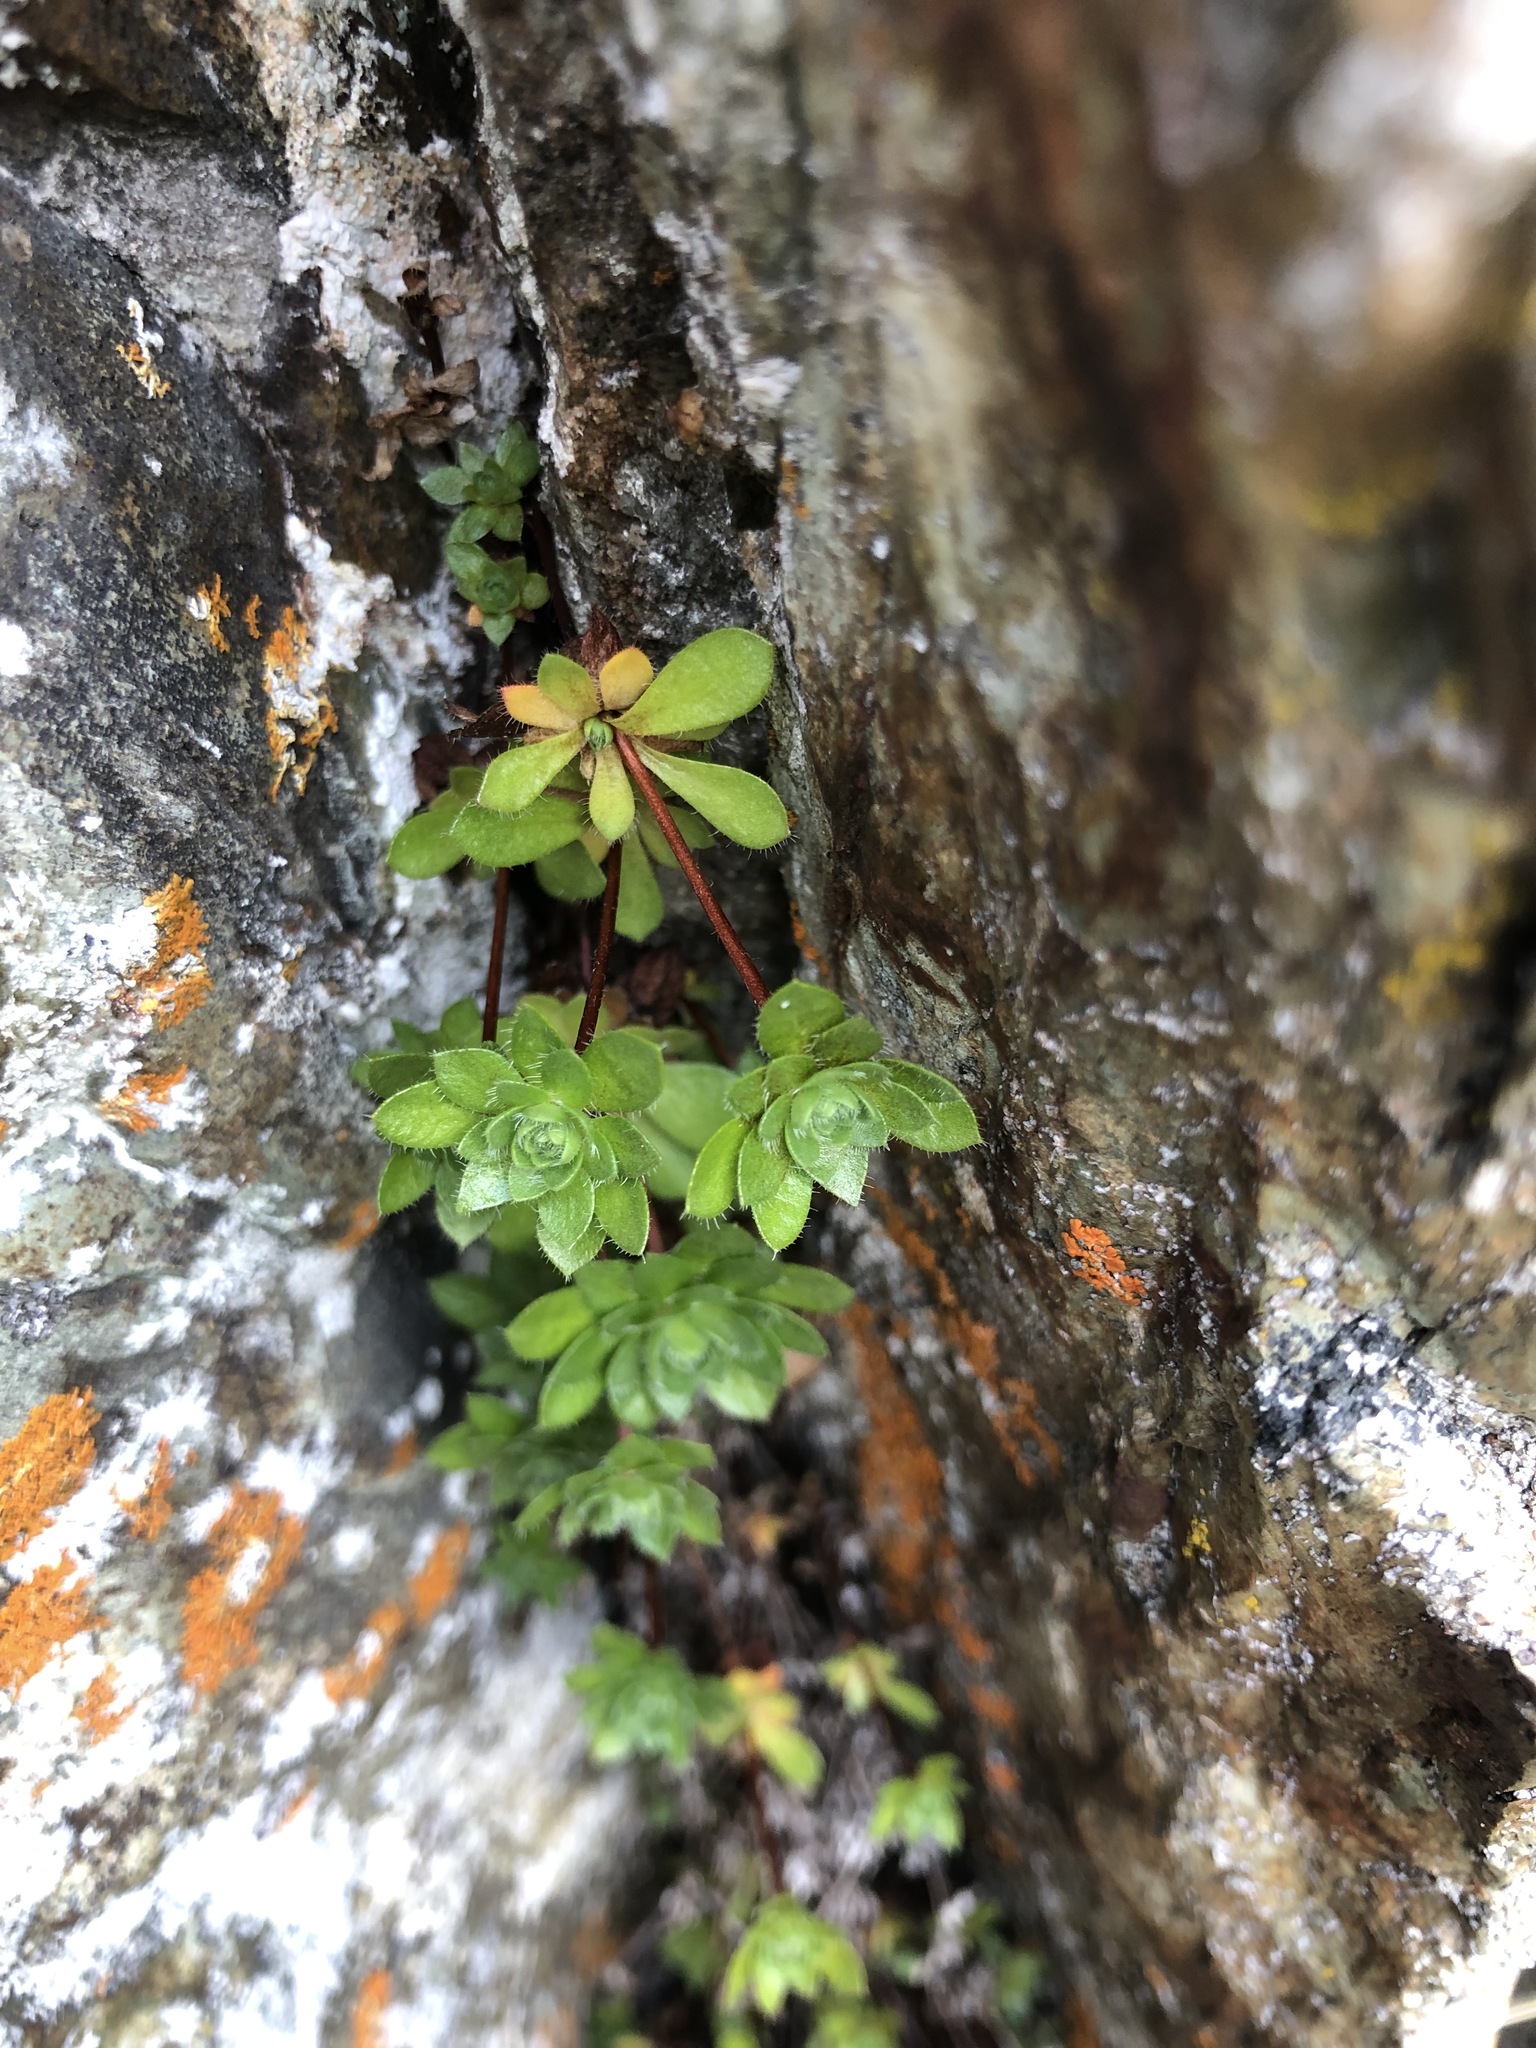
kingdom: Plantae
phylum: Tracheophyta
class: Magnoliopsida
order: Ericales
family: Primulaceae
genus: Androsace
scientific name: Androsace bungeana
